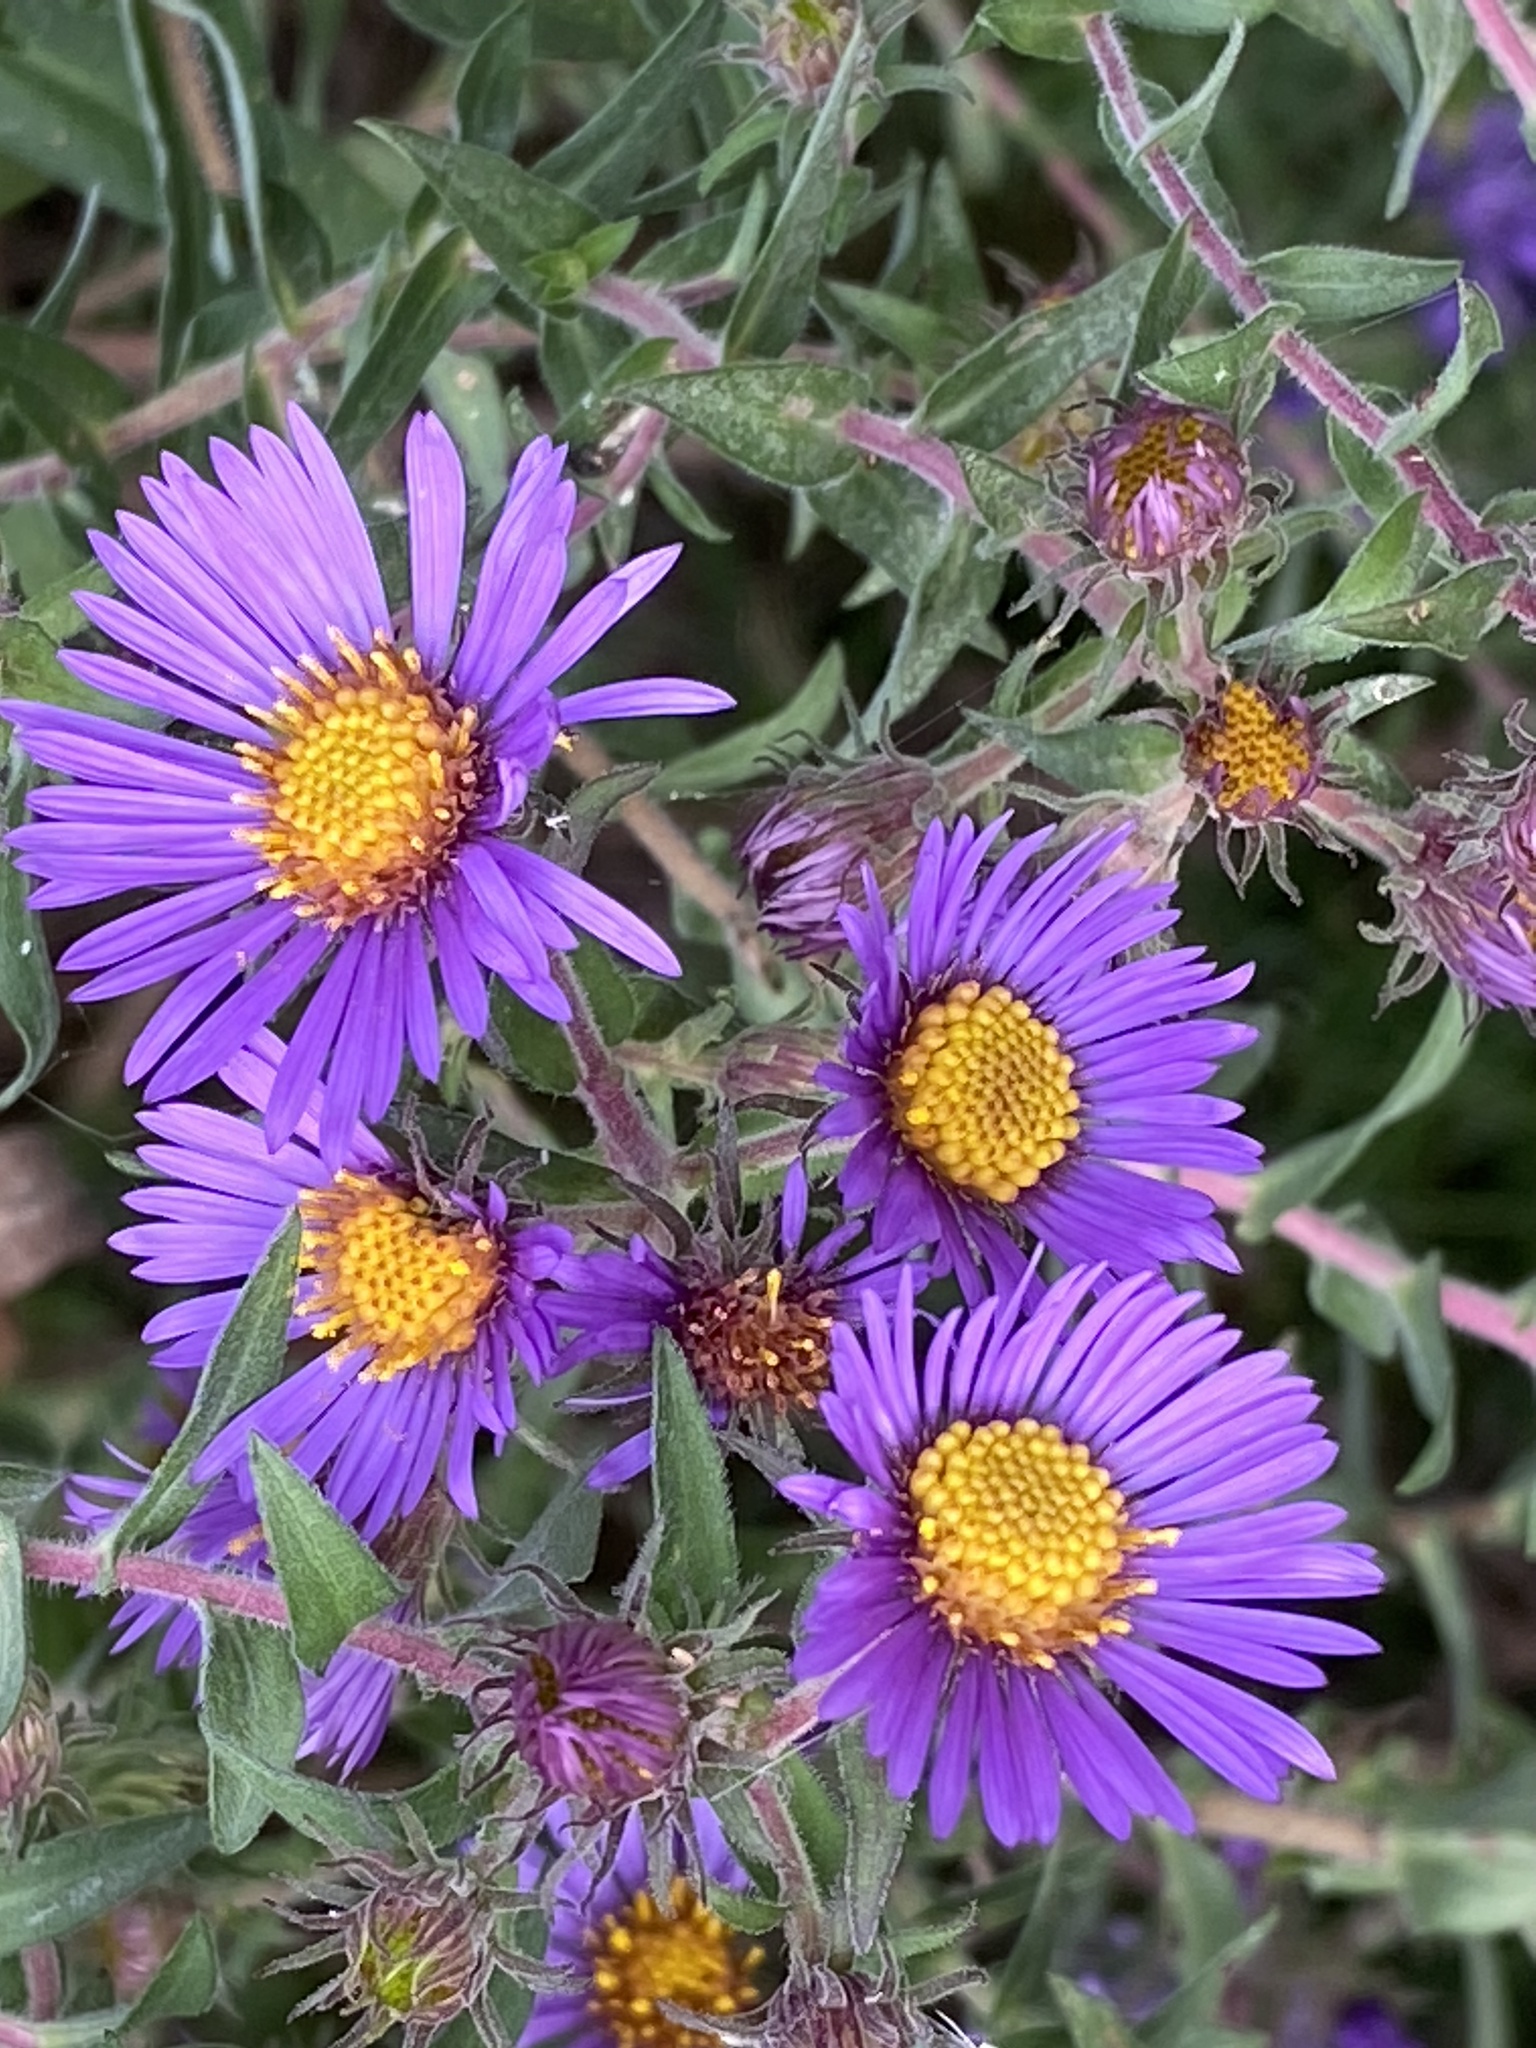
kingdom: Plantae
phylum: Tracheophyta
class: Magnoliopsida
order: Asterales
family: Asteraceae
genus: Symphyotrichum
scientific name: Symphyotrichum novae-angliae
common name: Michaelmas daisy
